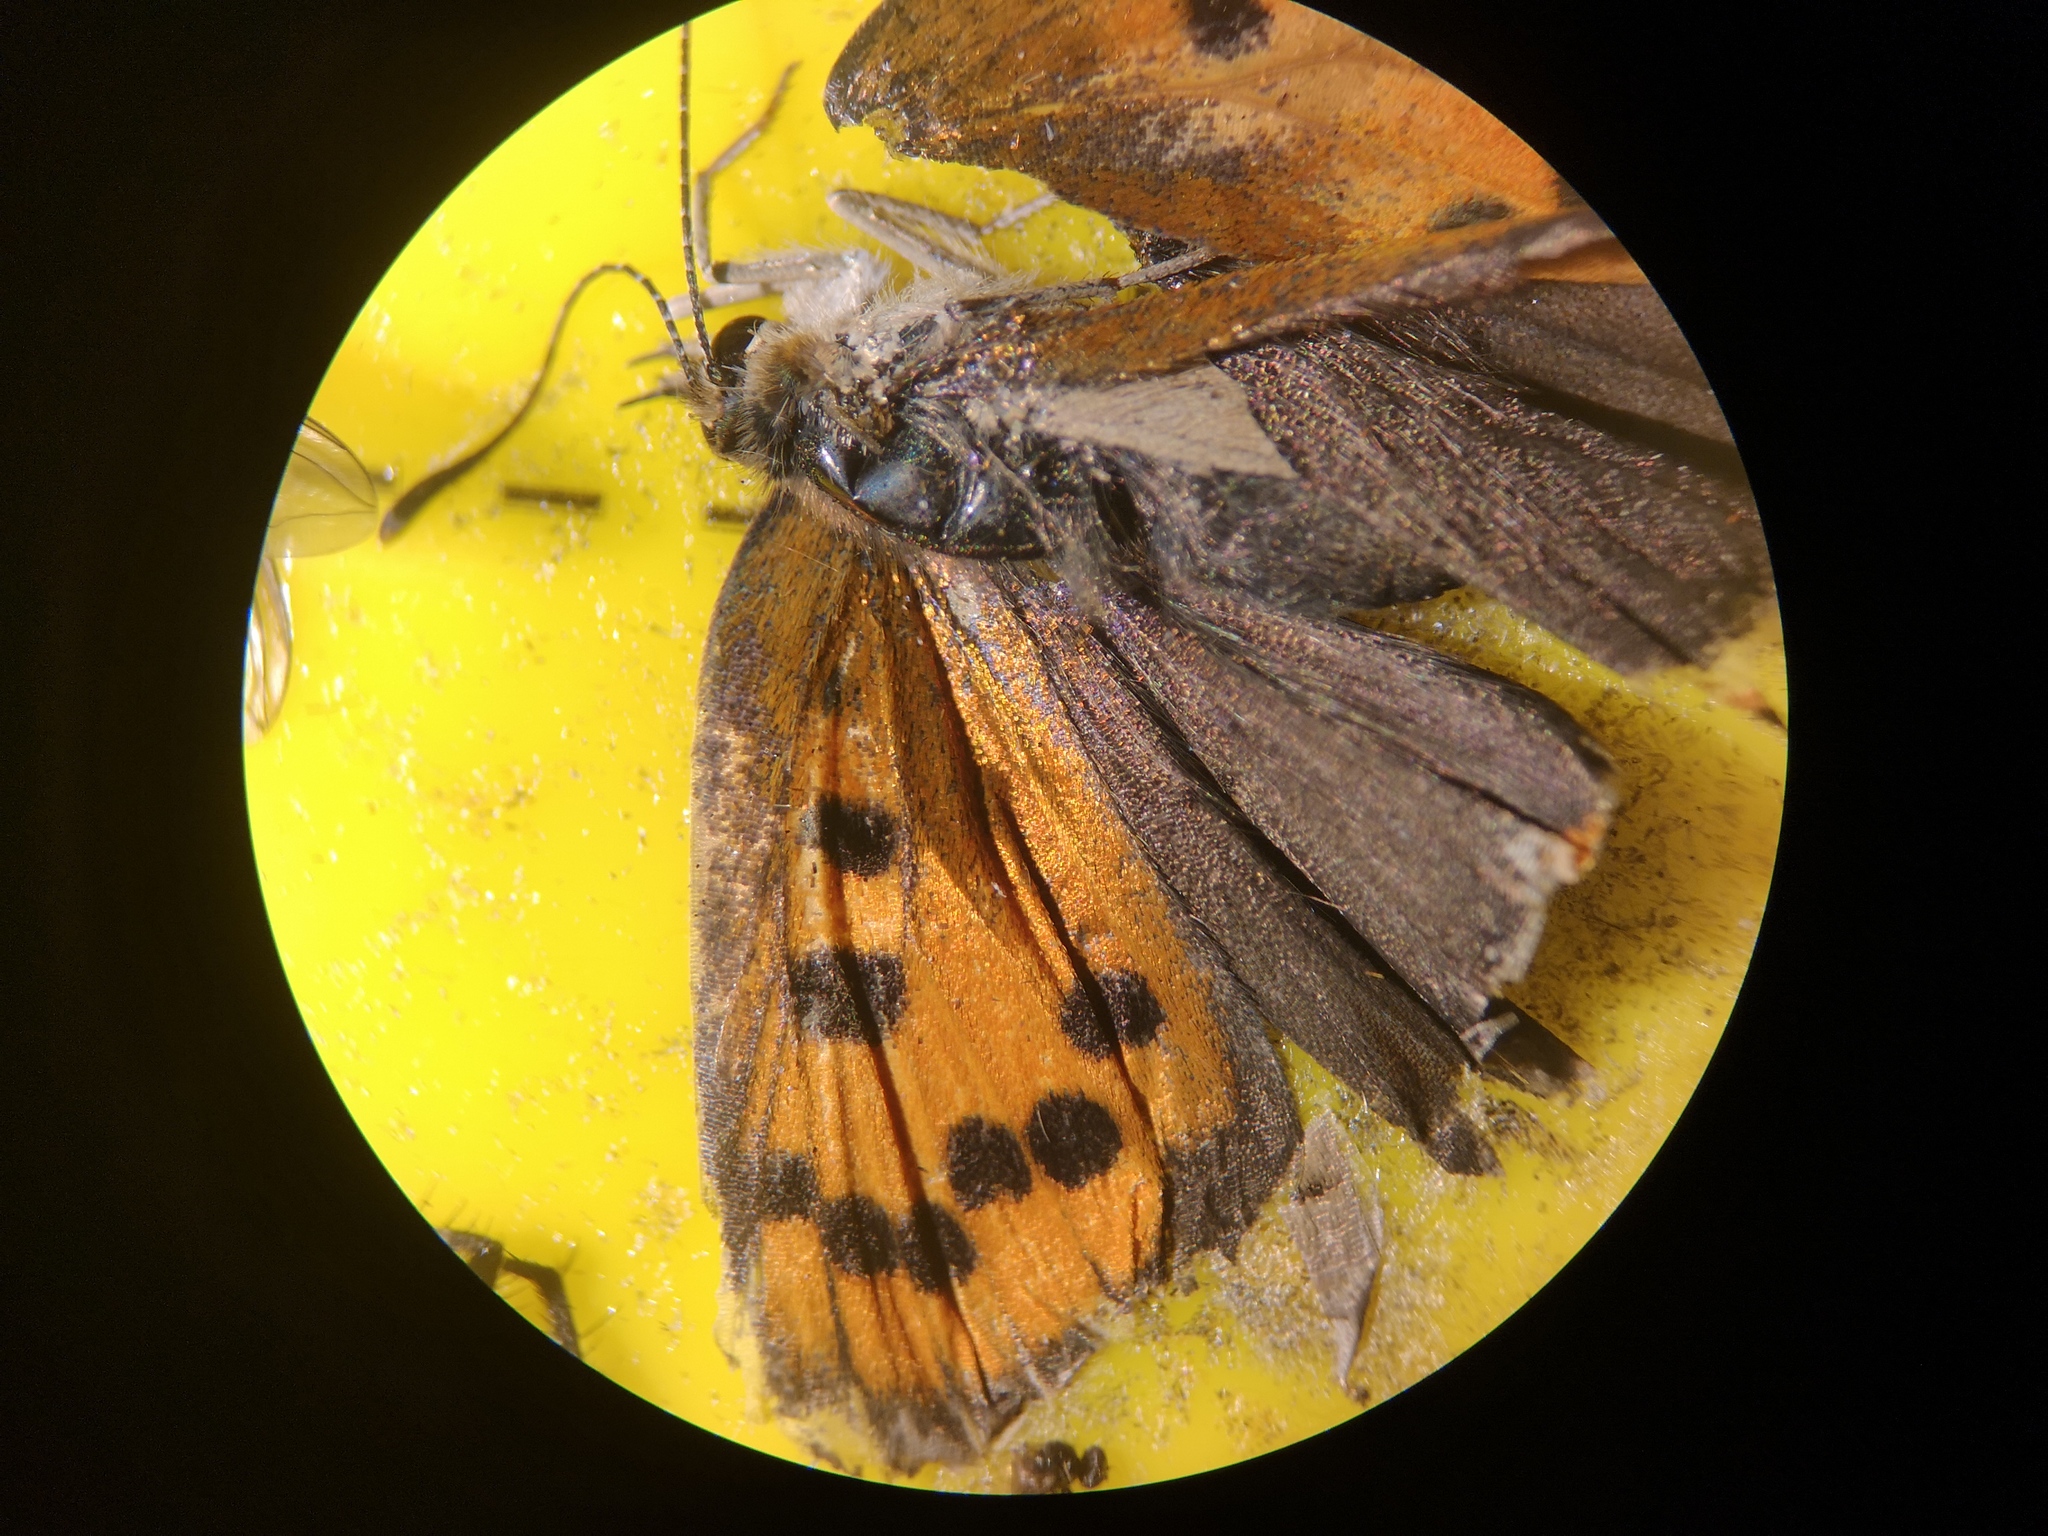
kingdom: Animalia
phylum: Arthropoda
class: Insecta
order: Lepidoptera
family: Lycaenidae
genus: Lycaena
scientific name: Lycaena phlaeas
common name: Small copper
